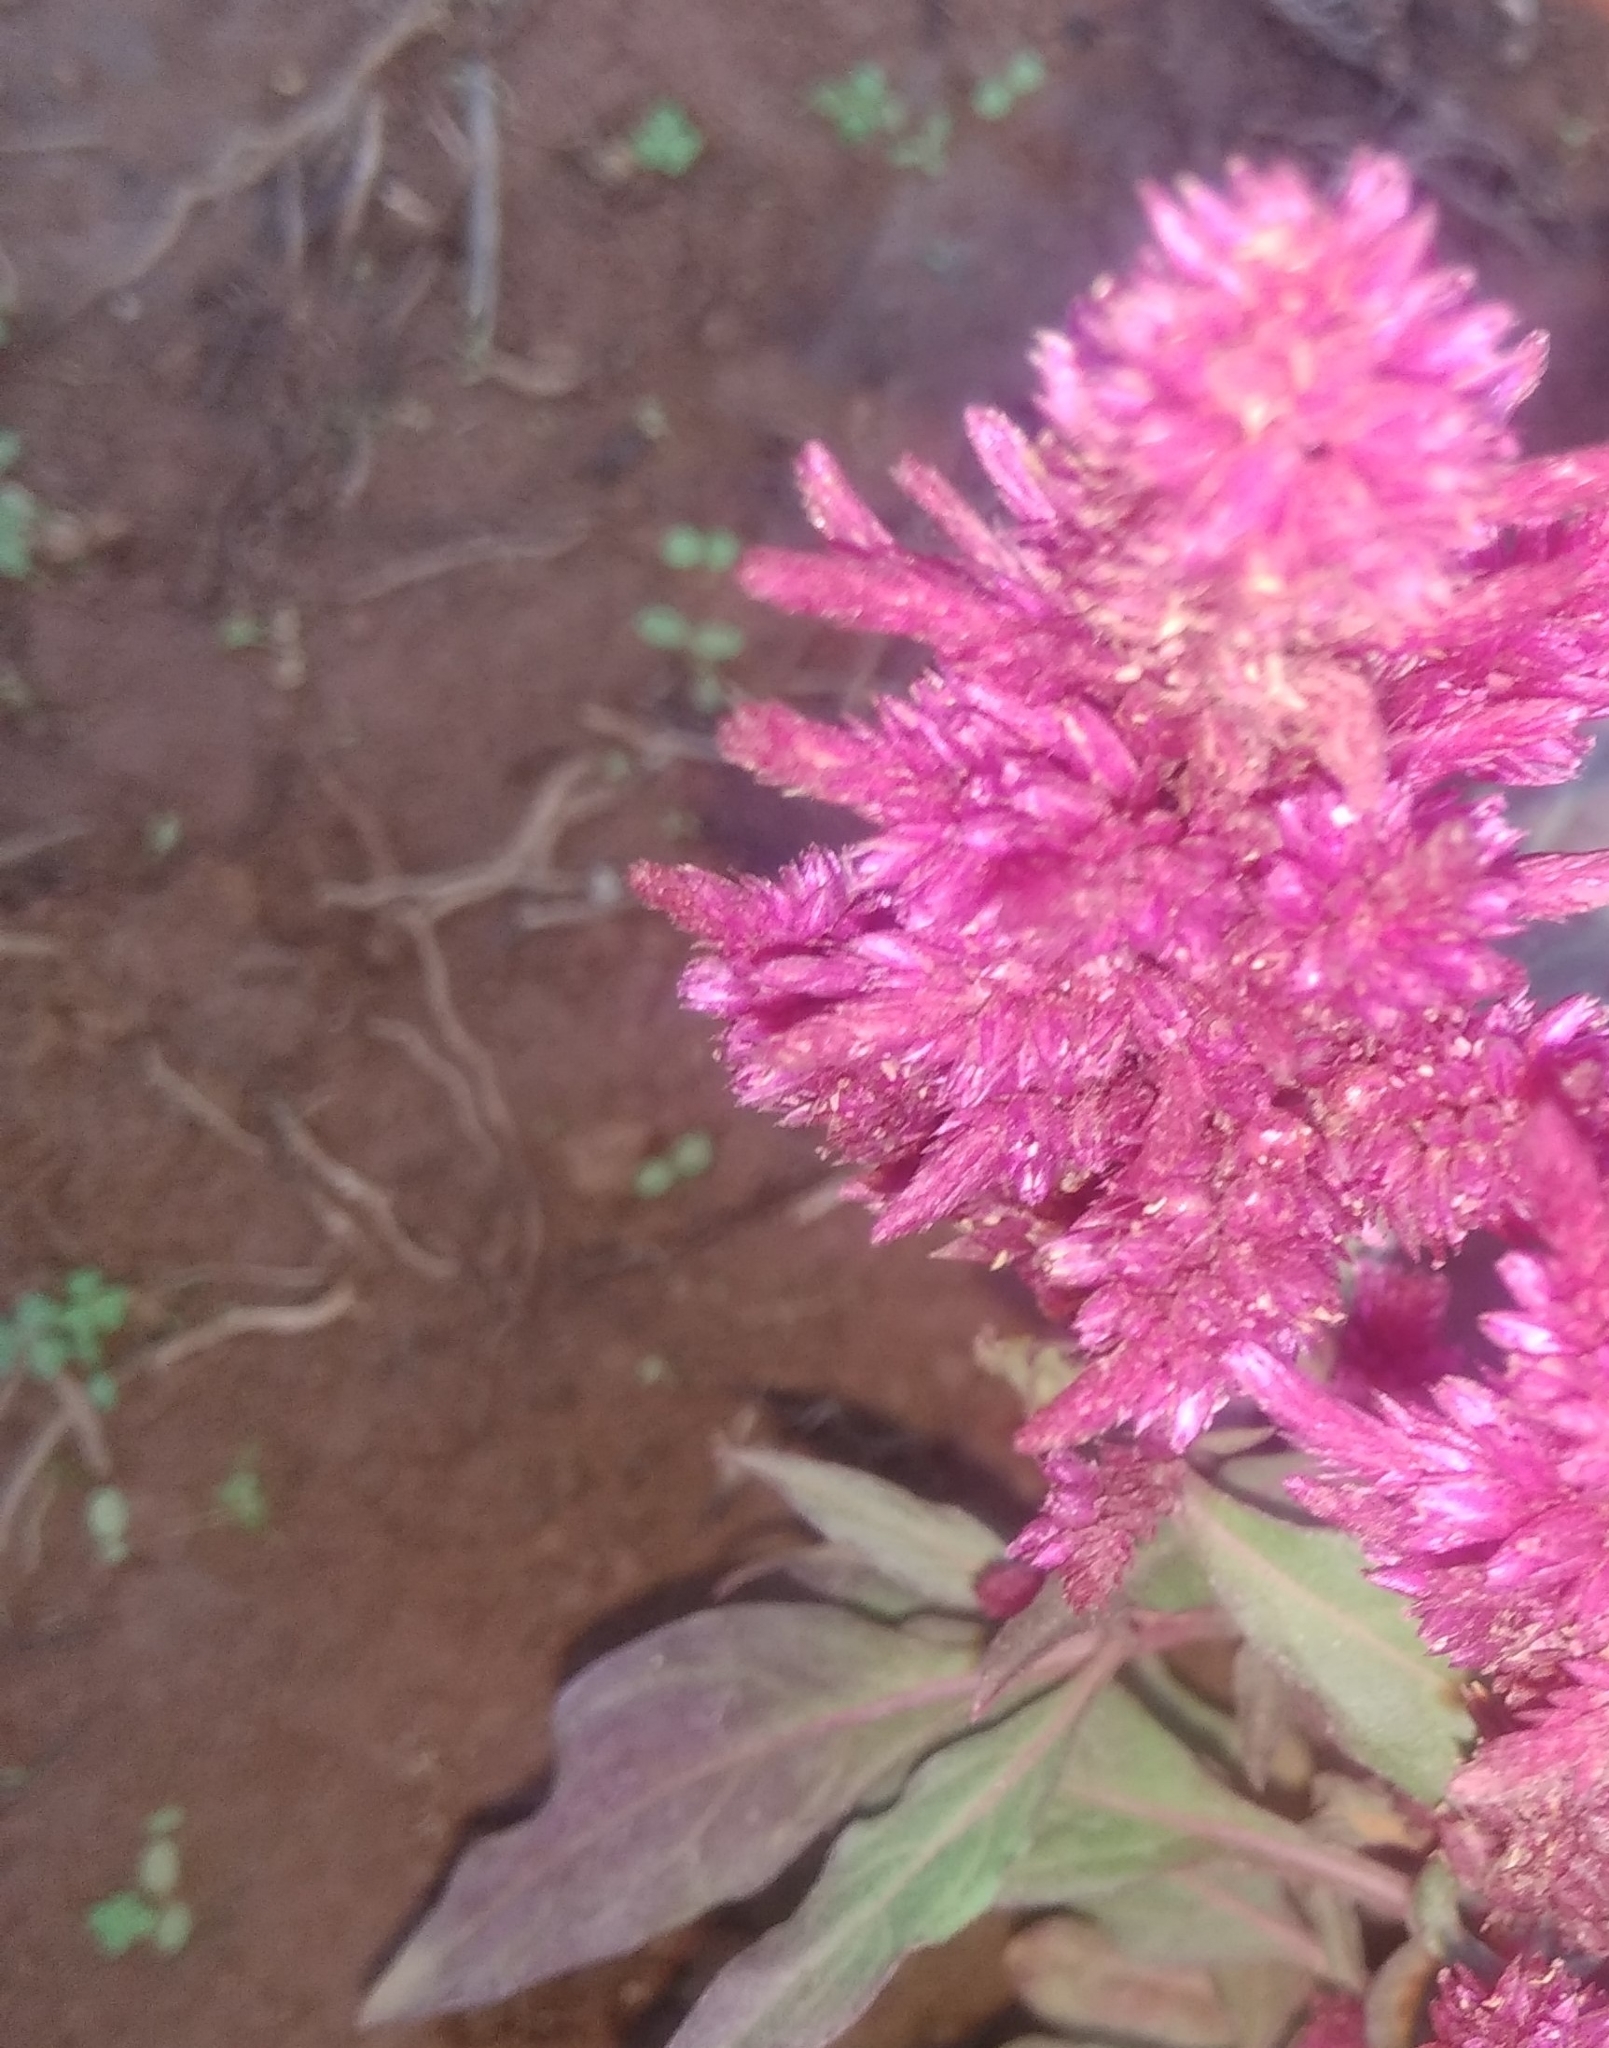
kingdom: Plantae
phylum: Tracheophyta
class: Magnoliopsida
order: Caryophyllales
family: Amaranthaceae
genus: Celosia
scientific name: Celosia argentea
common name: Feather cockscomb
